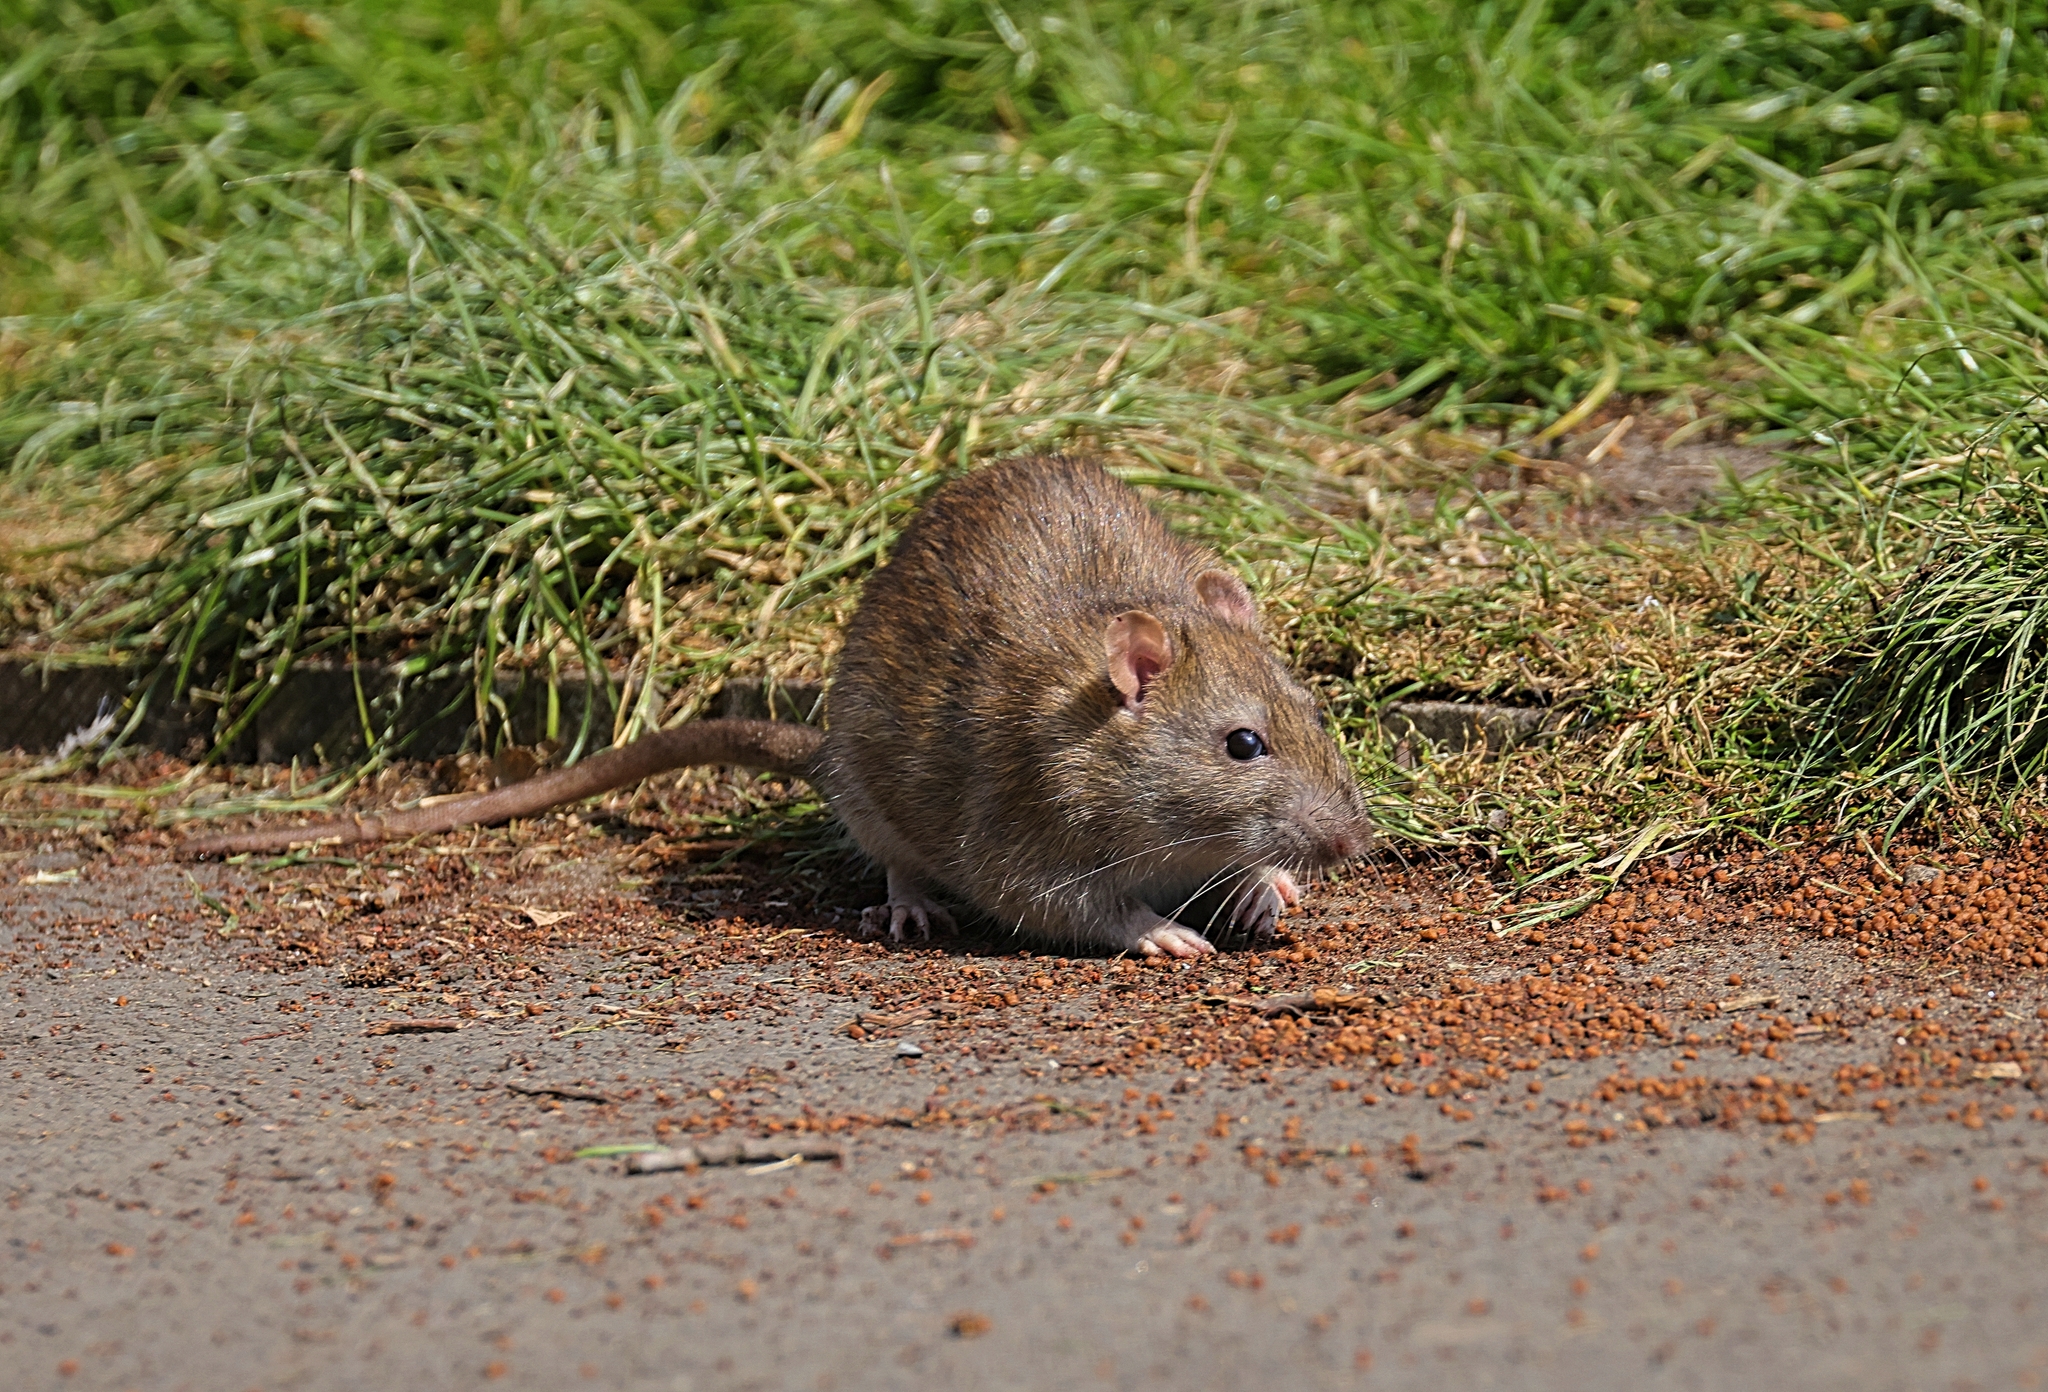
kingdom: Animalia
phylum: Chordata
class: Mammalia
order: Rodentia
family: Muridae
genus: Rattus
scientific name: Rattus norvegicus
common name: Brown rat
